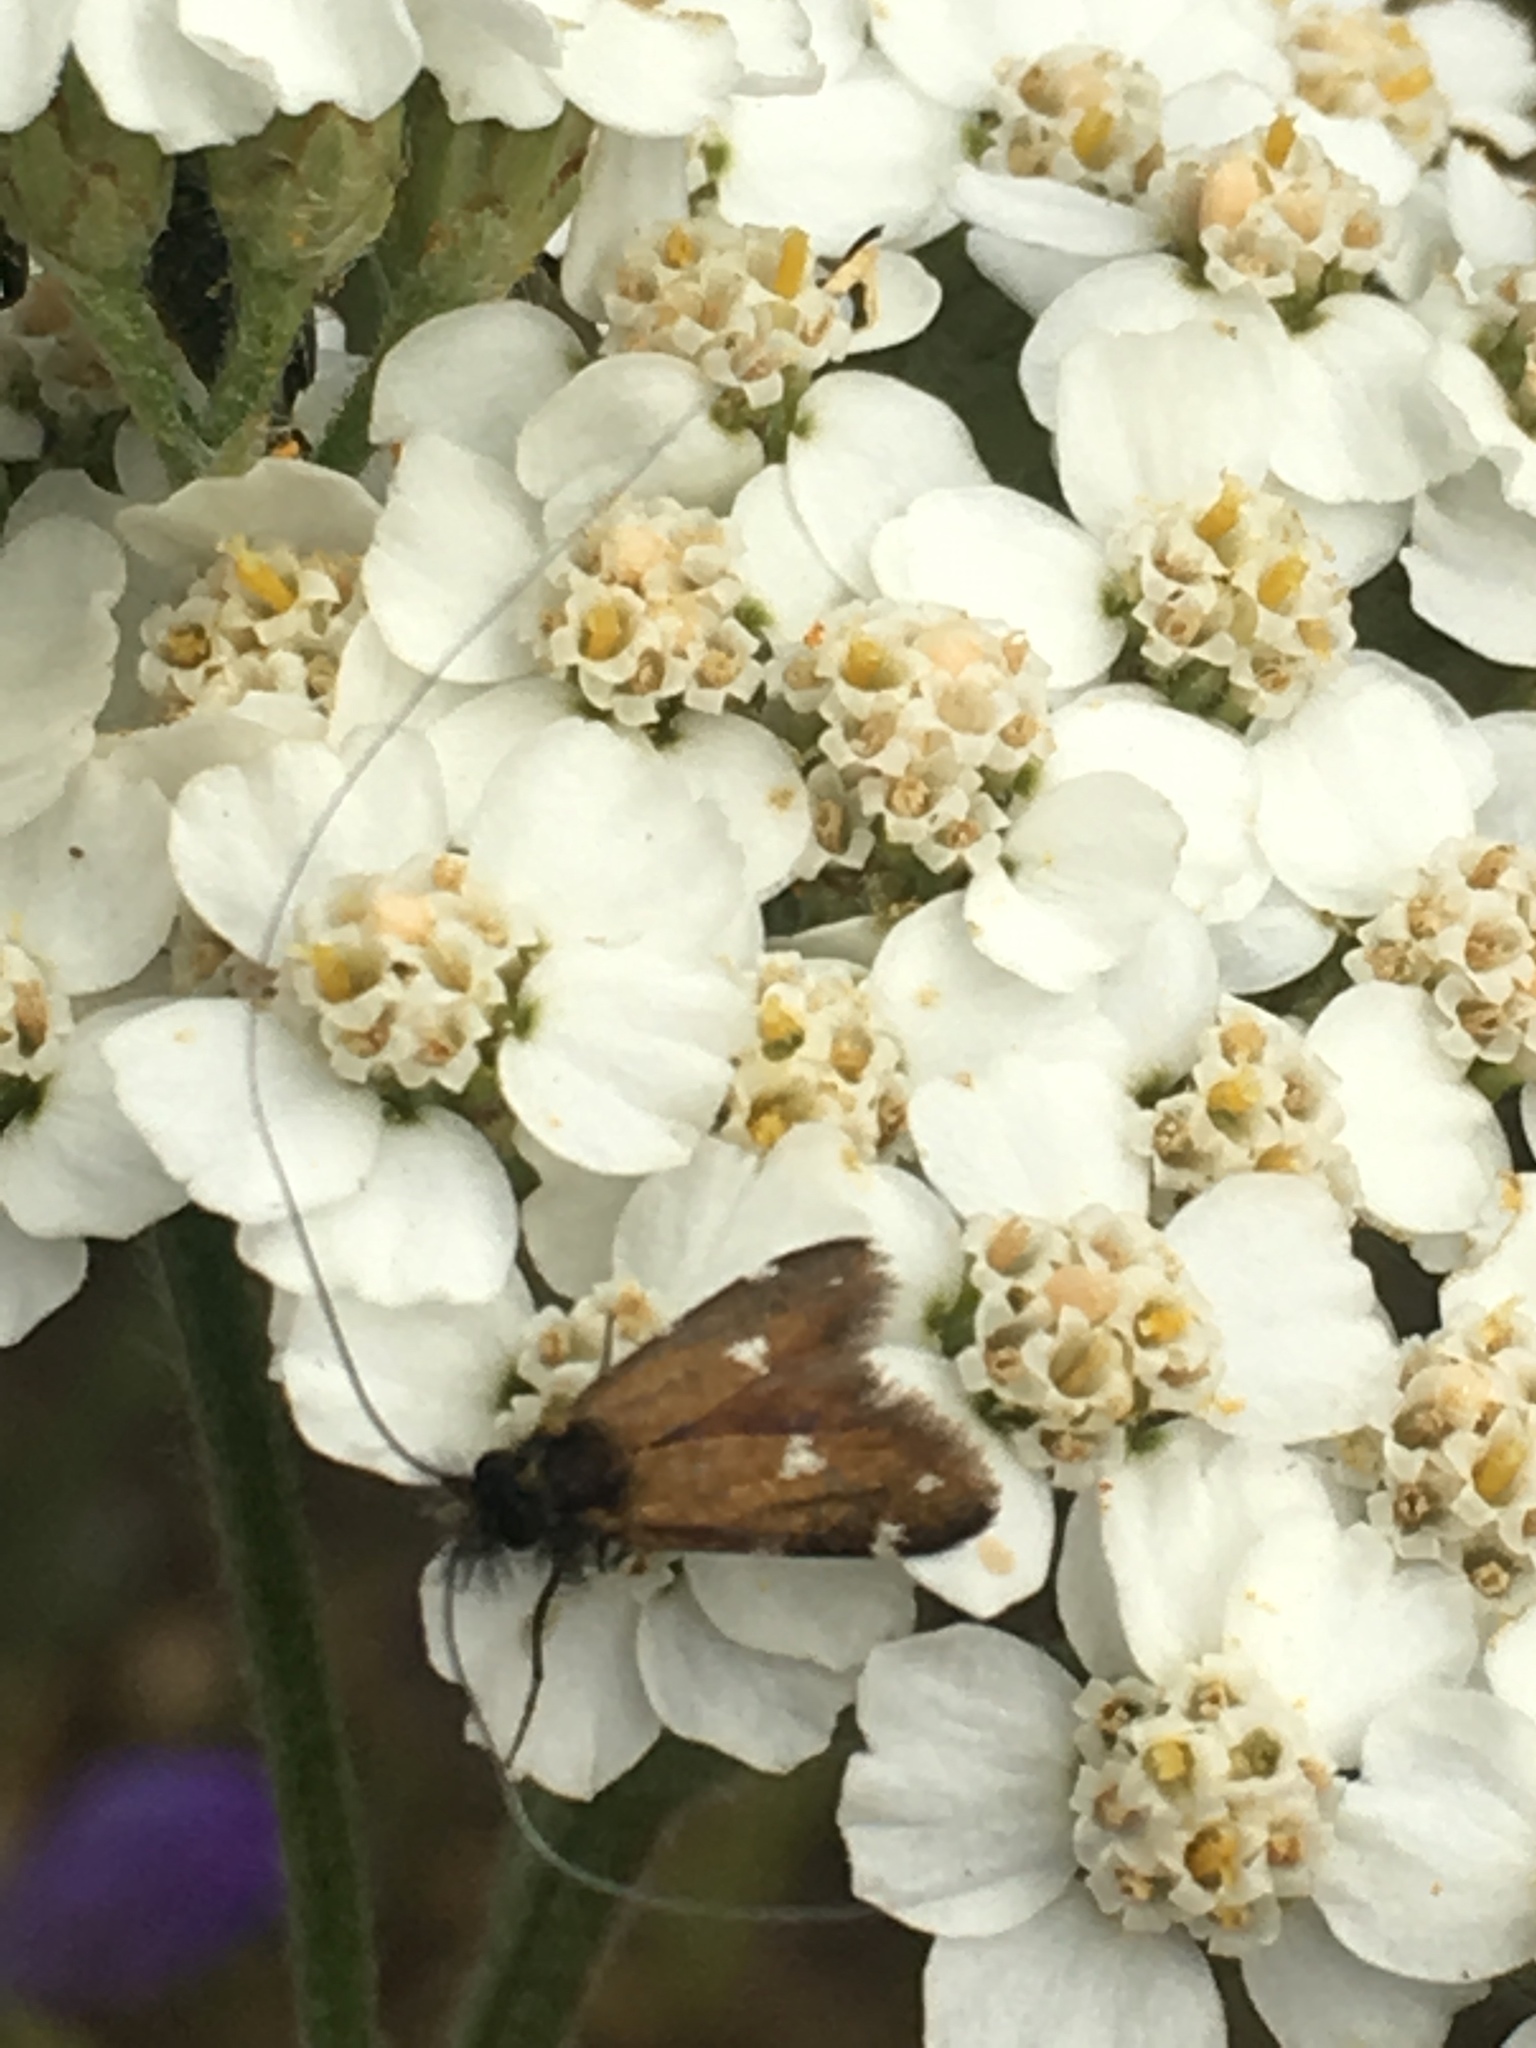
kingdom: Animalia
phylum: Arthropoda
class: Insecta
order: Lepidoptera
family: Adelidae
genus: Adela
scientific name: Adela flammeusella
